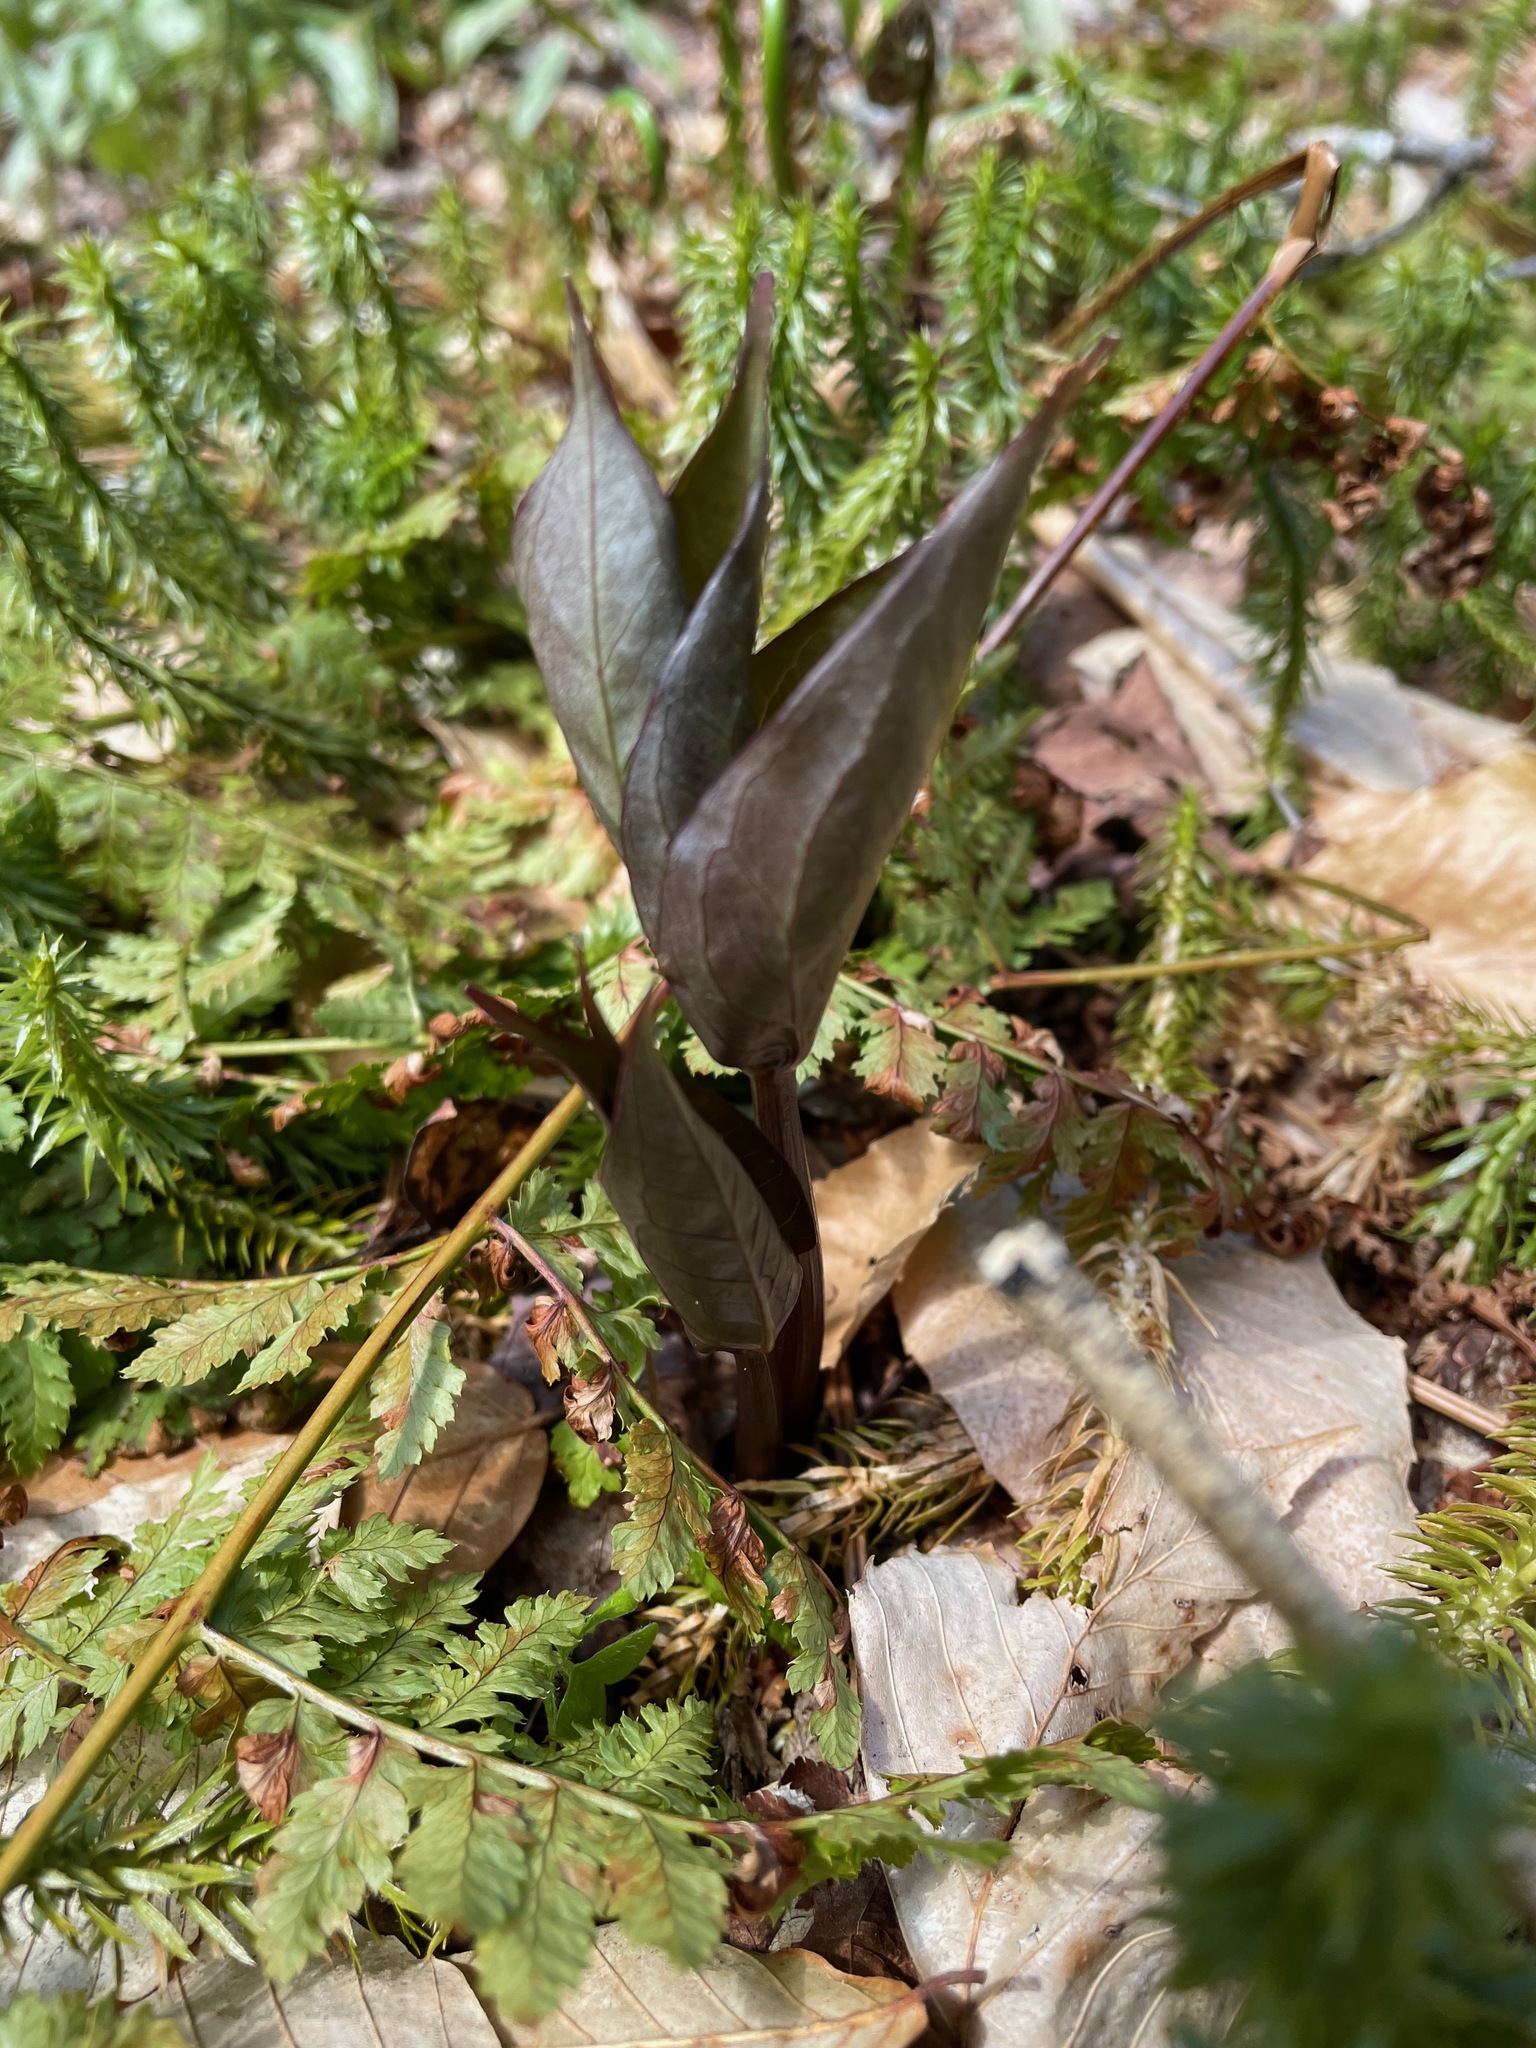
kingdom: Plantae
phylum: Tracheophyta
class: Liliopsida
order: Liliales
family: Melanthiaceae
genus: Trillium
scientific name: Trillium undulatum
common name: Paint trillium
